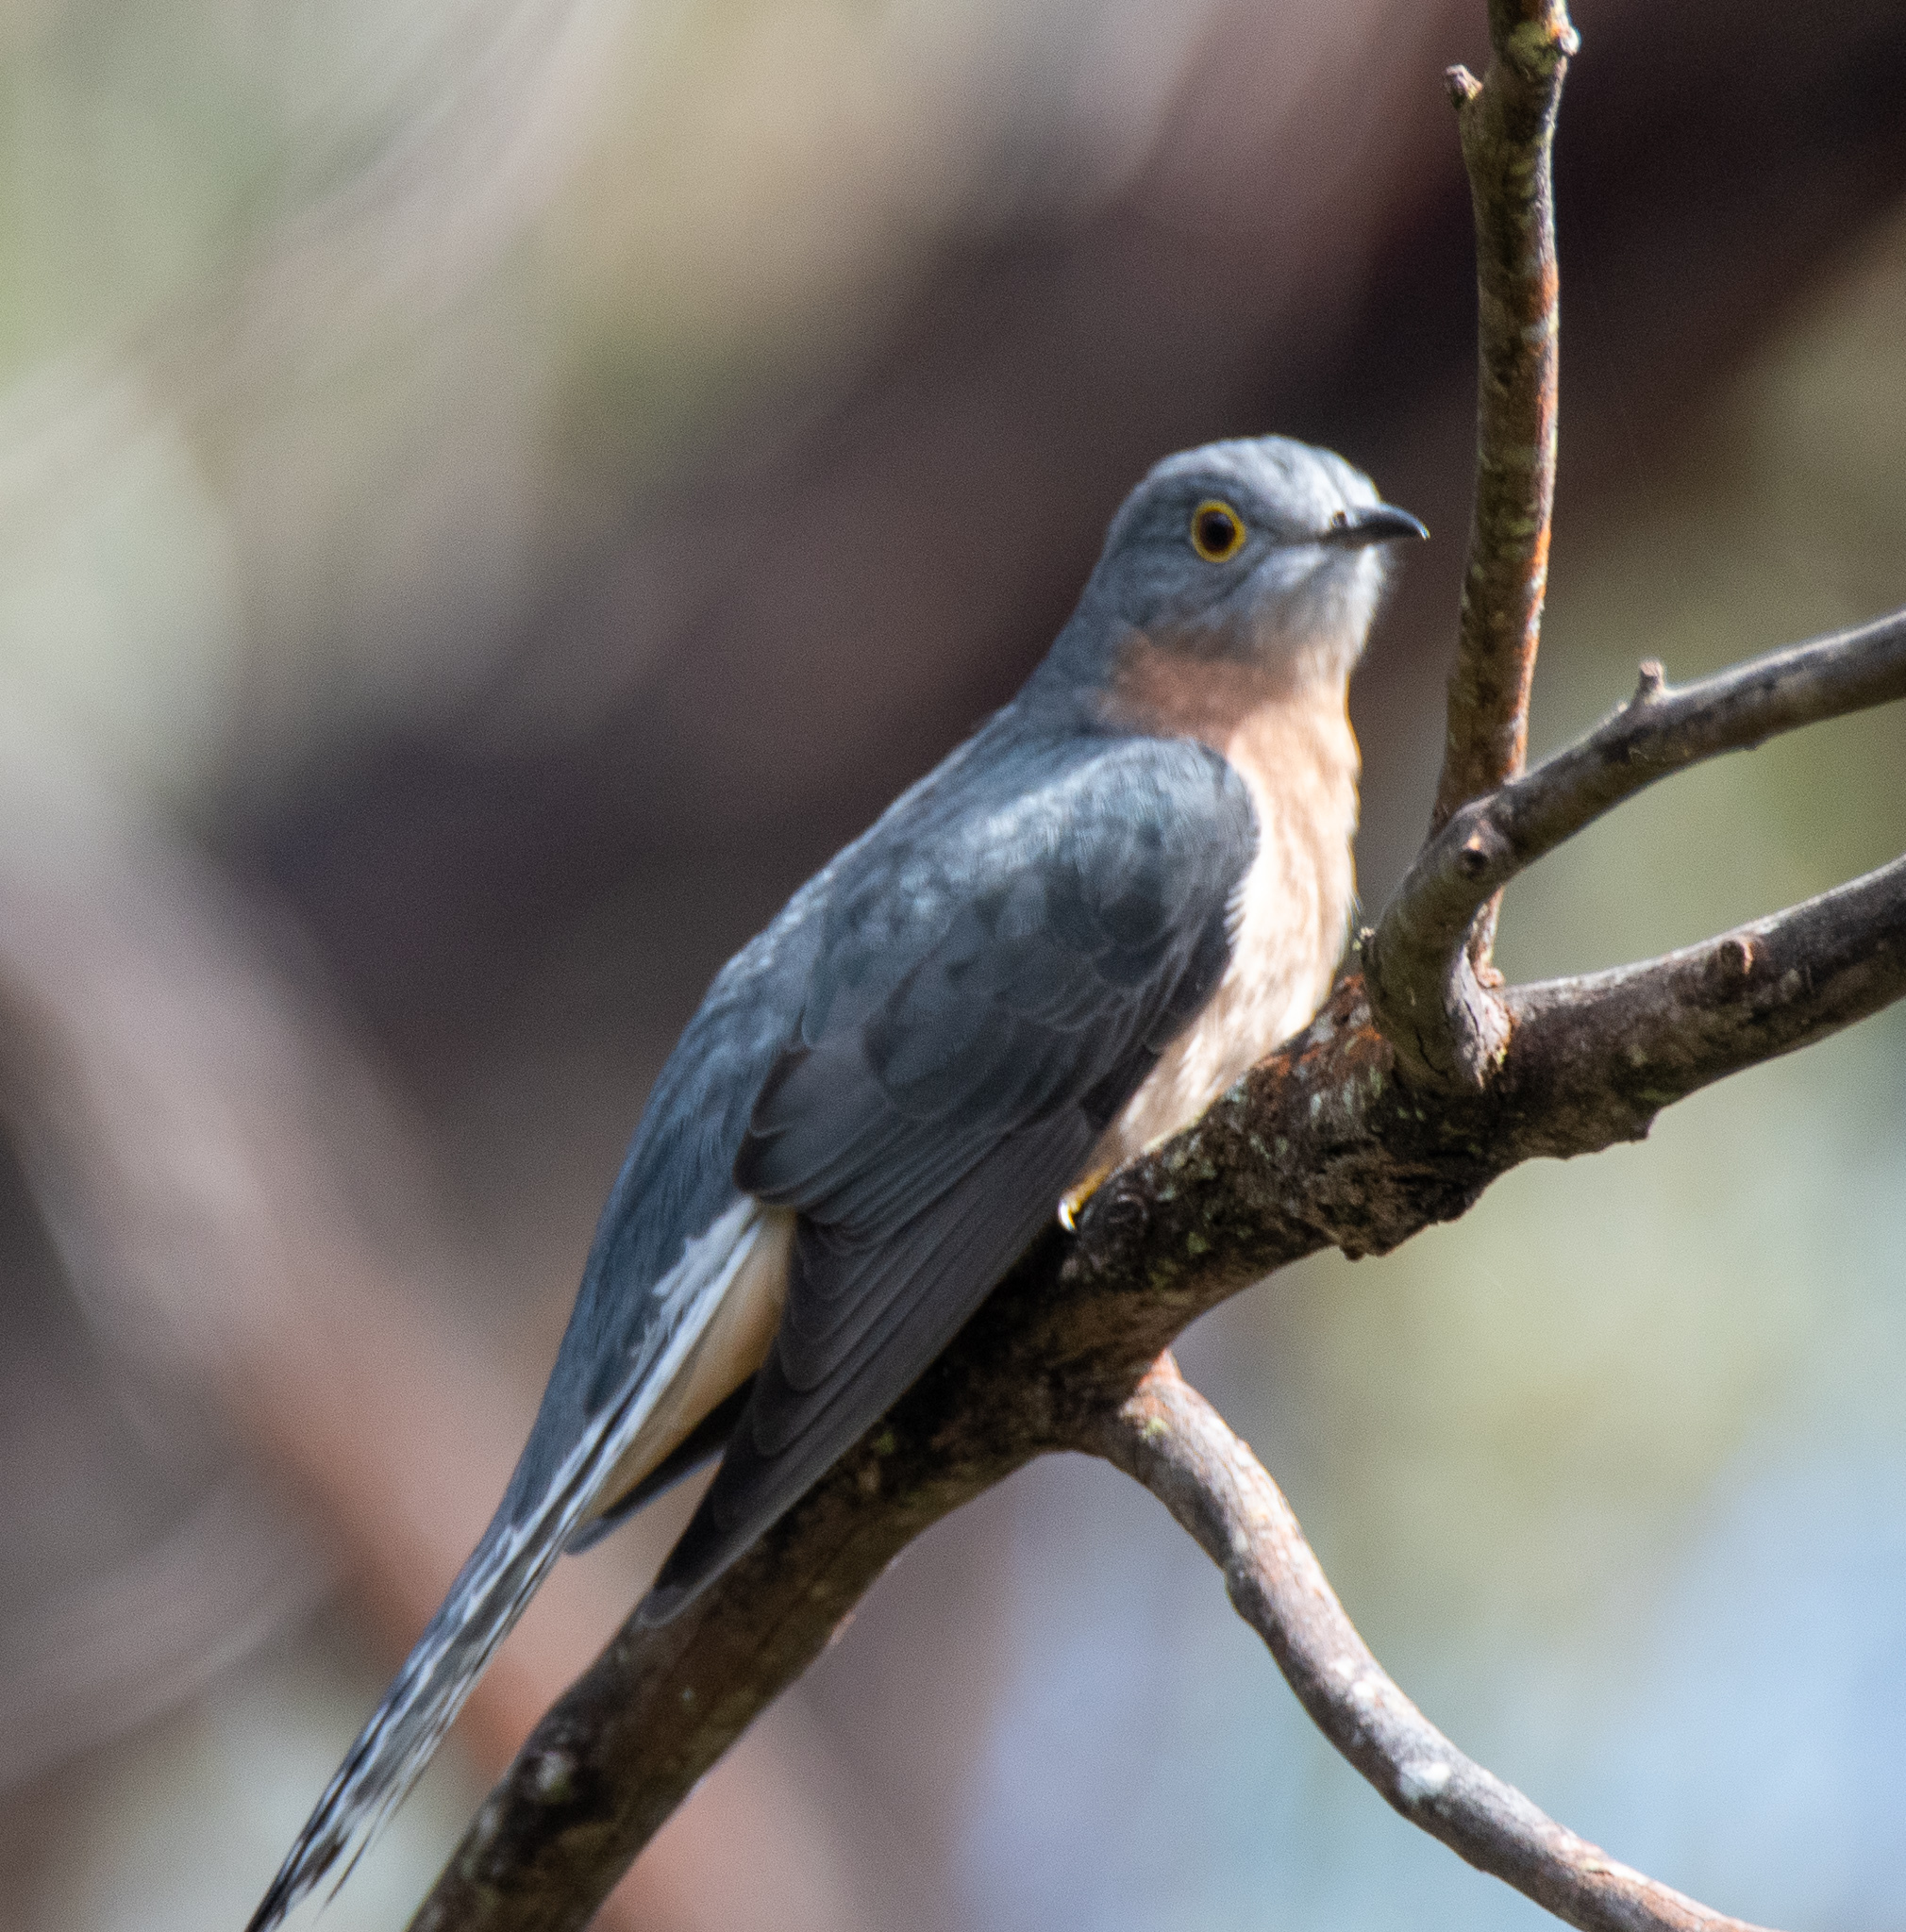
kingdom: Animalia
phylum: Chordata
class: Aves
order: Cuculiformes
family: Cuculidae
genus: Cacomantis
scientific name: Cacomantis flabelliformis
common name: Fan-tailed cuckoo
